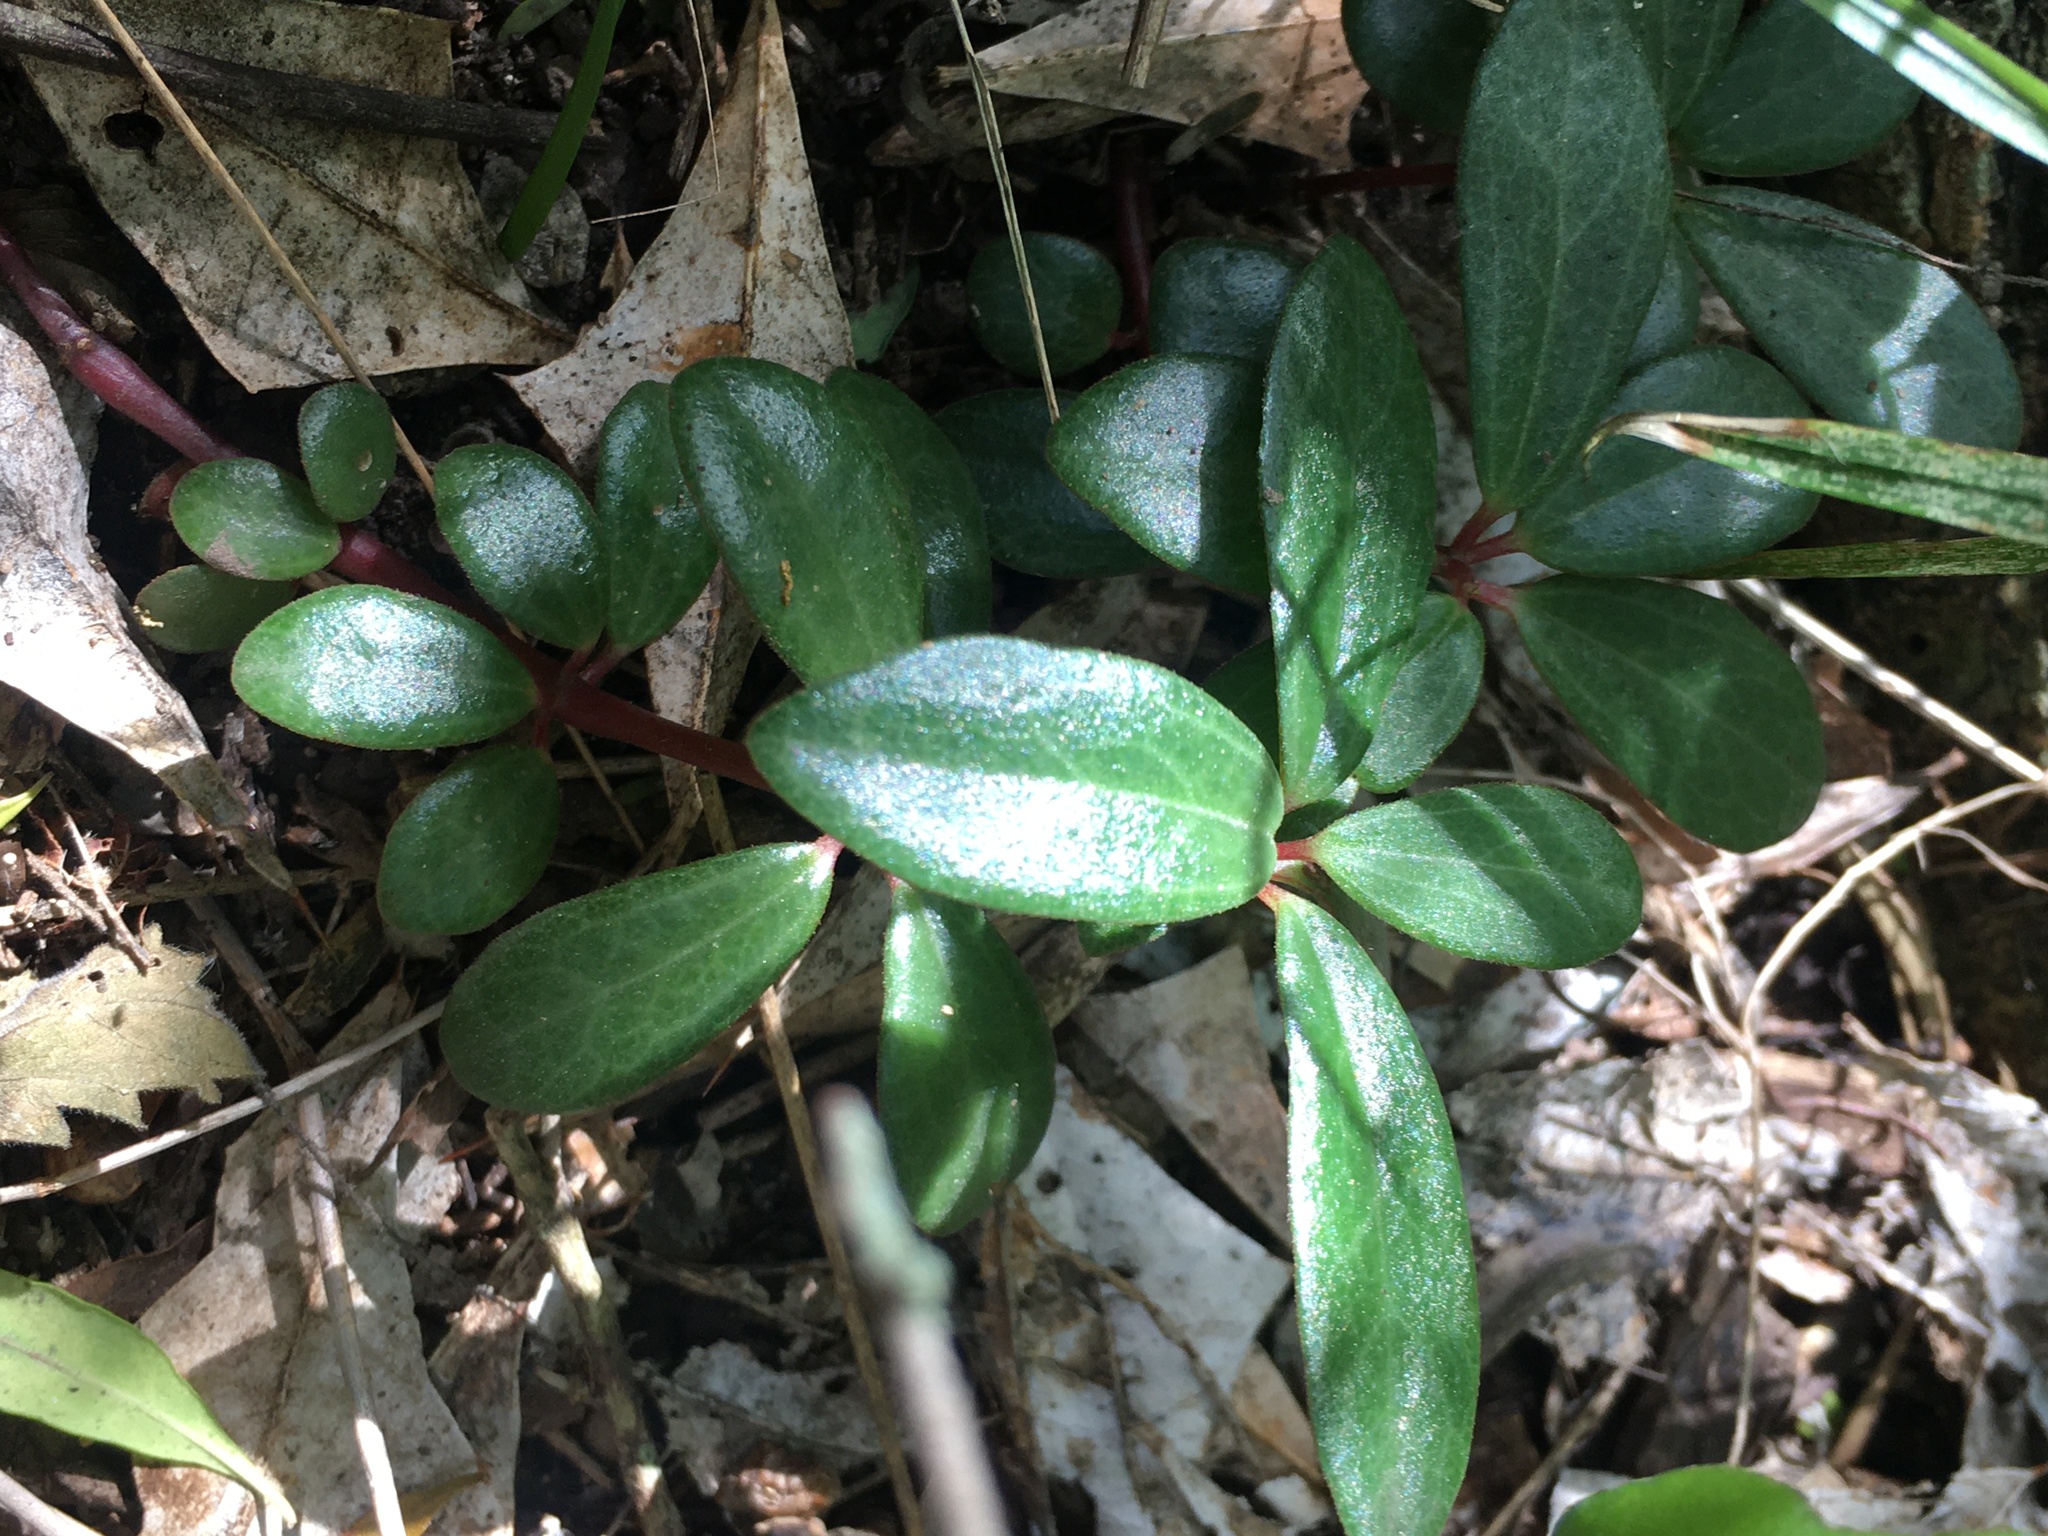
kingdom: Plantae
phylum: Tracheophyta
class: Magnoliopsida
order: Piperales
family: Piperaceae
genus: Peperomia
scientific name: Peperomia comarapana
